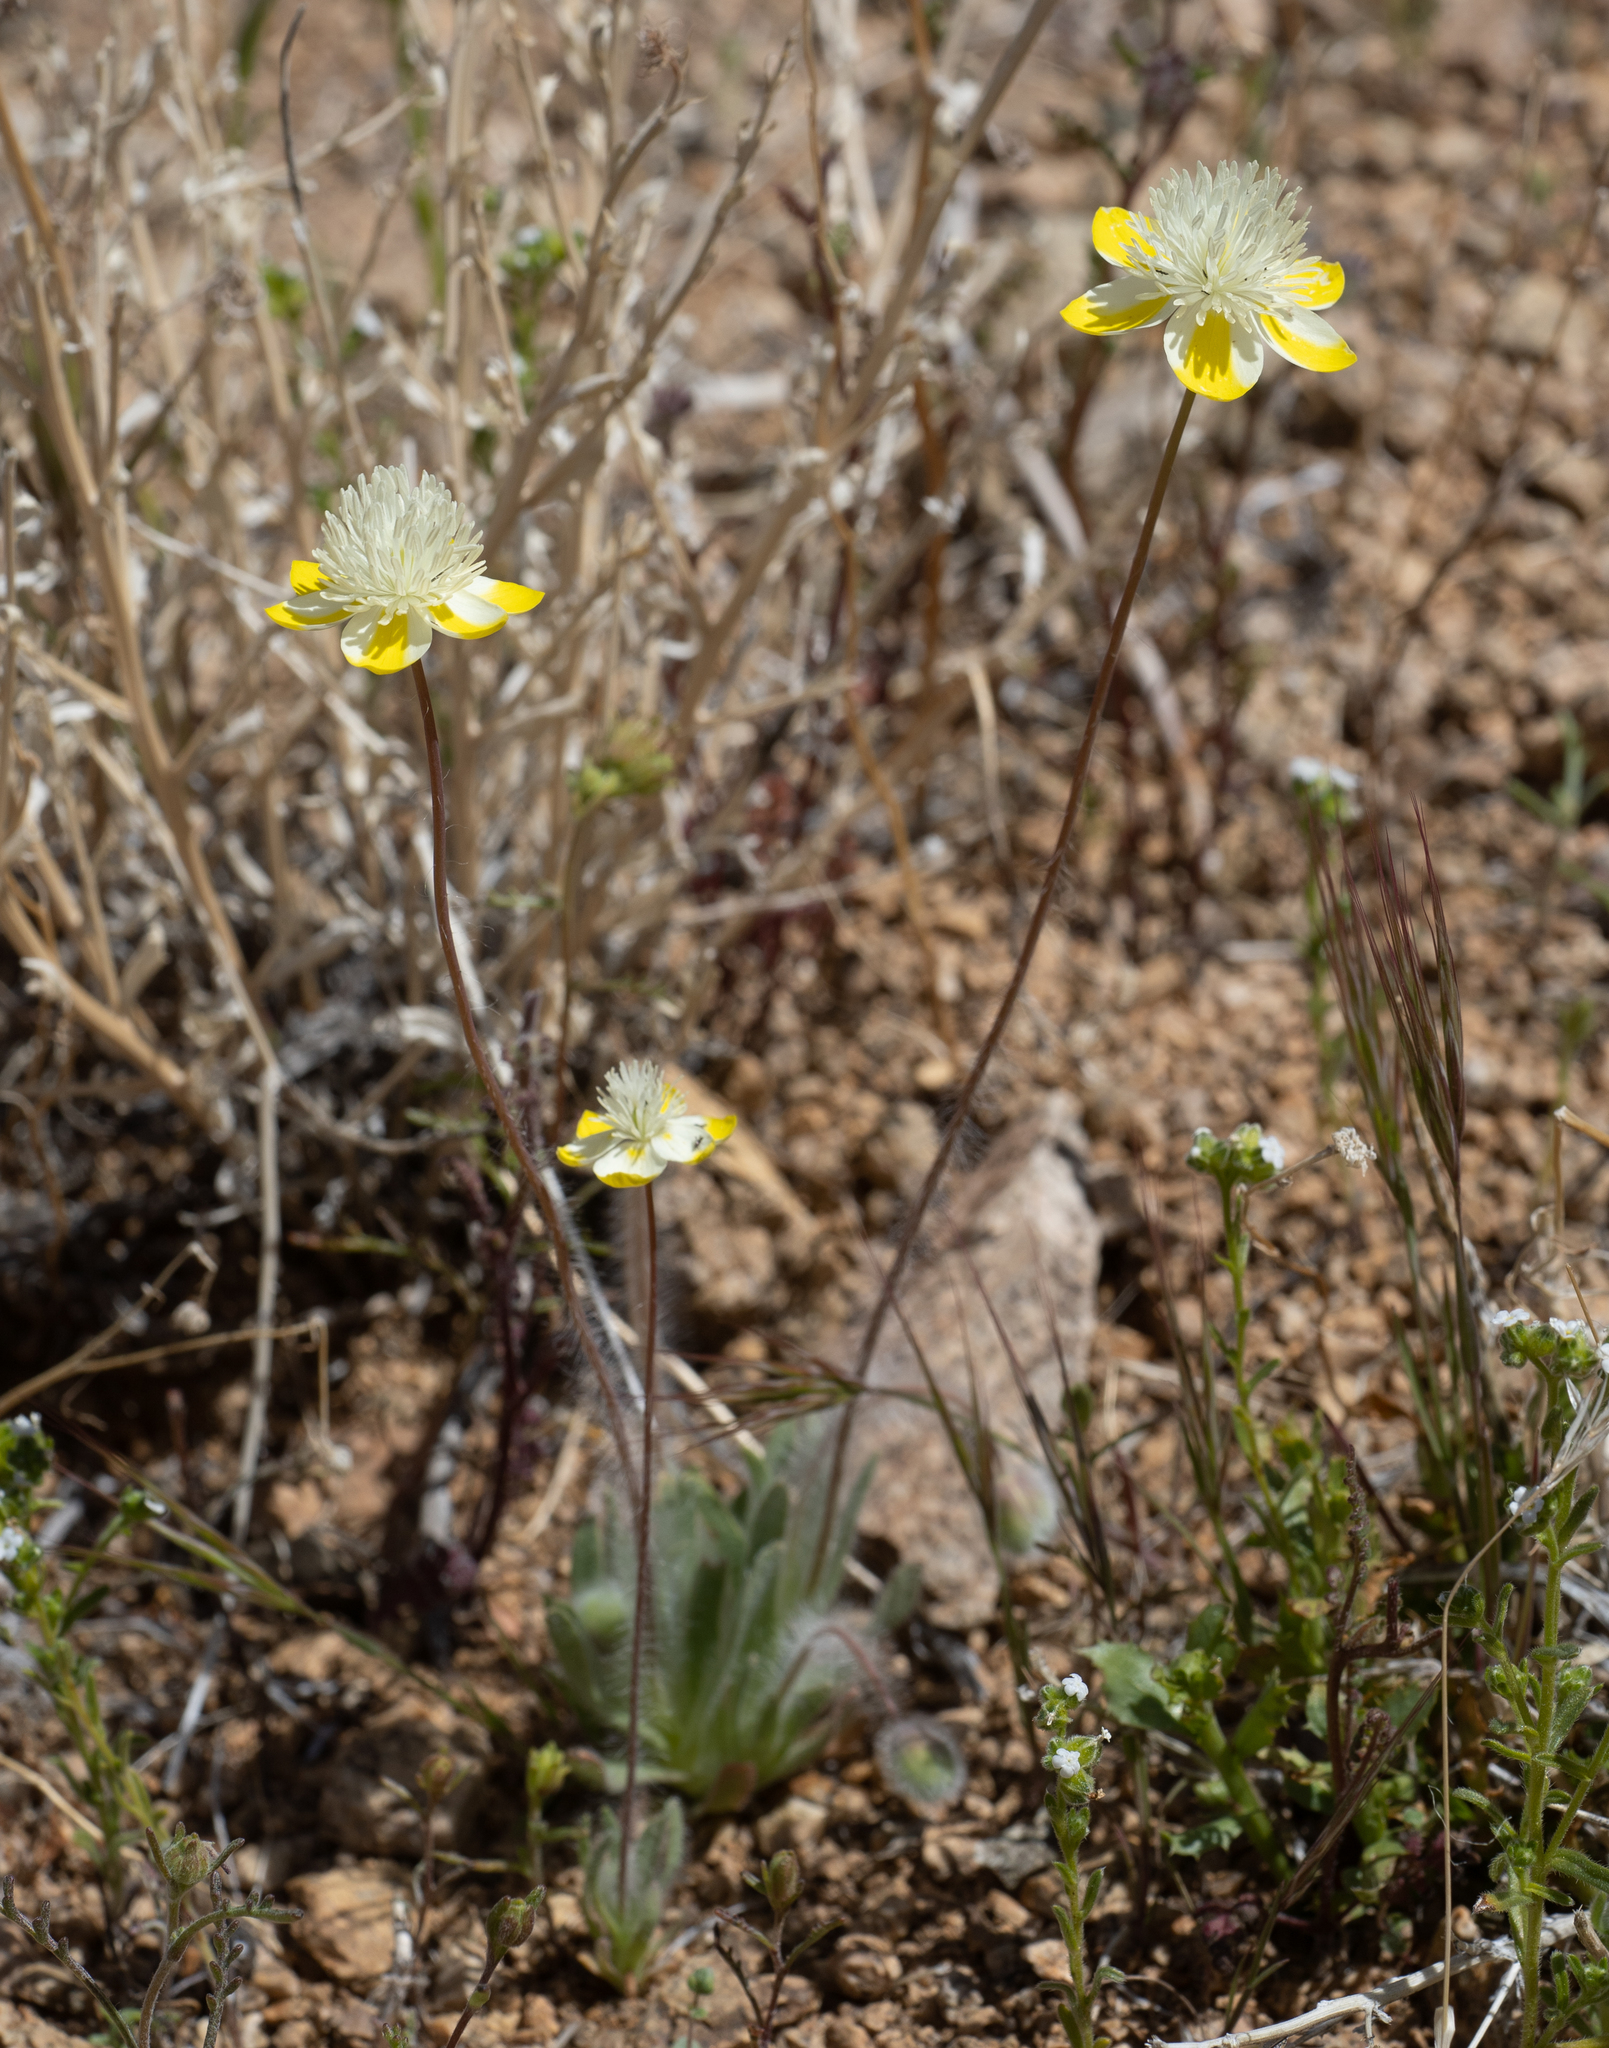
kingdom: Plantae
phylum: Tracheophyta
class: Magnoliopsida
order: Ranunculales
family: Papaveraceae
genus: Platystemon
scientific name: Platystemon californicus
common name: Cream-cups
